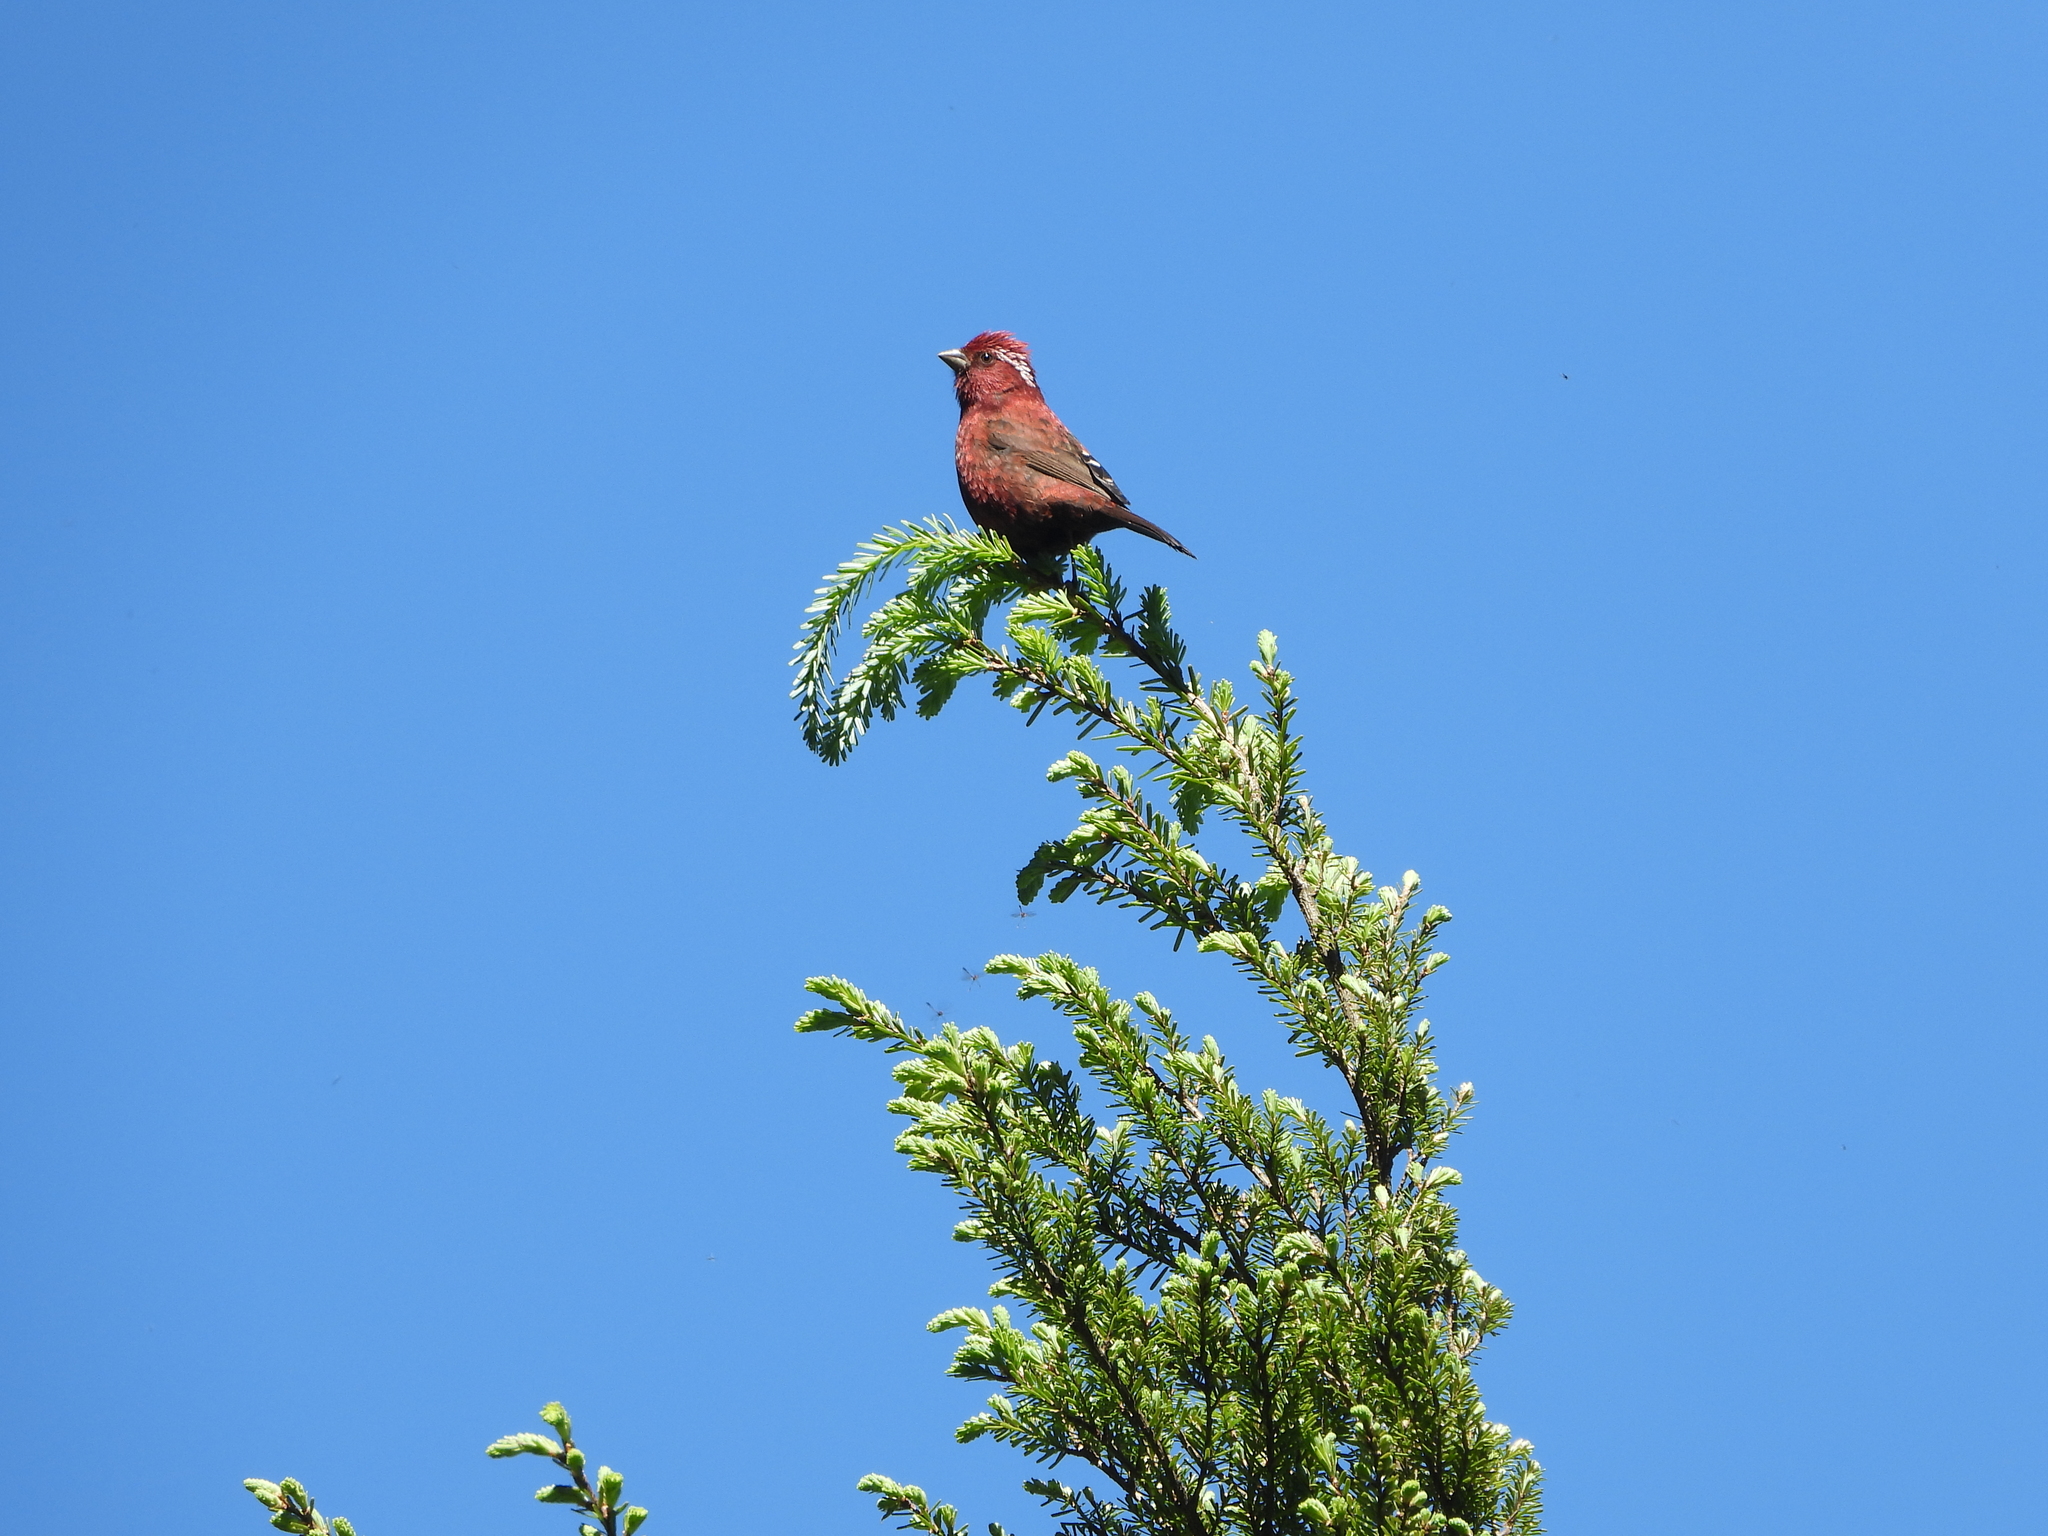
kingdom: Animalia
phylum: Chordata
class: Aves
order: Passeriformes
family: Fringillidae
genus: Carpodacus
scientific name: Carpodacus formosanus
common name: Taiwan rosefinch
